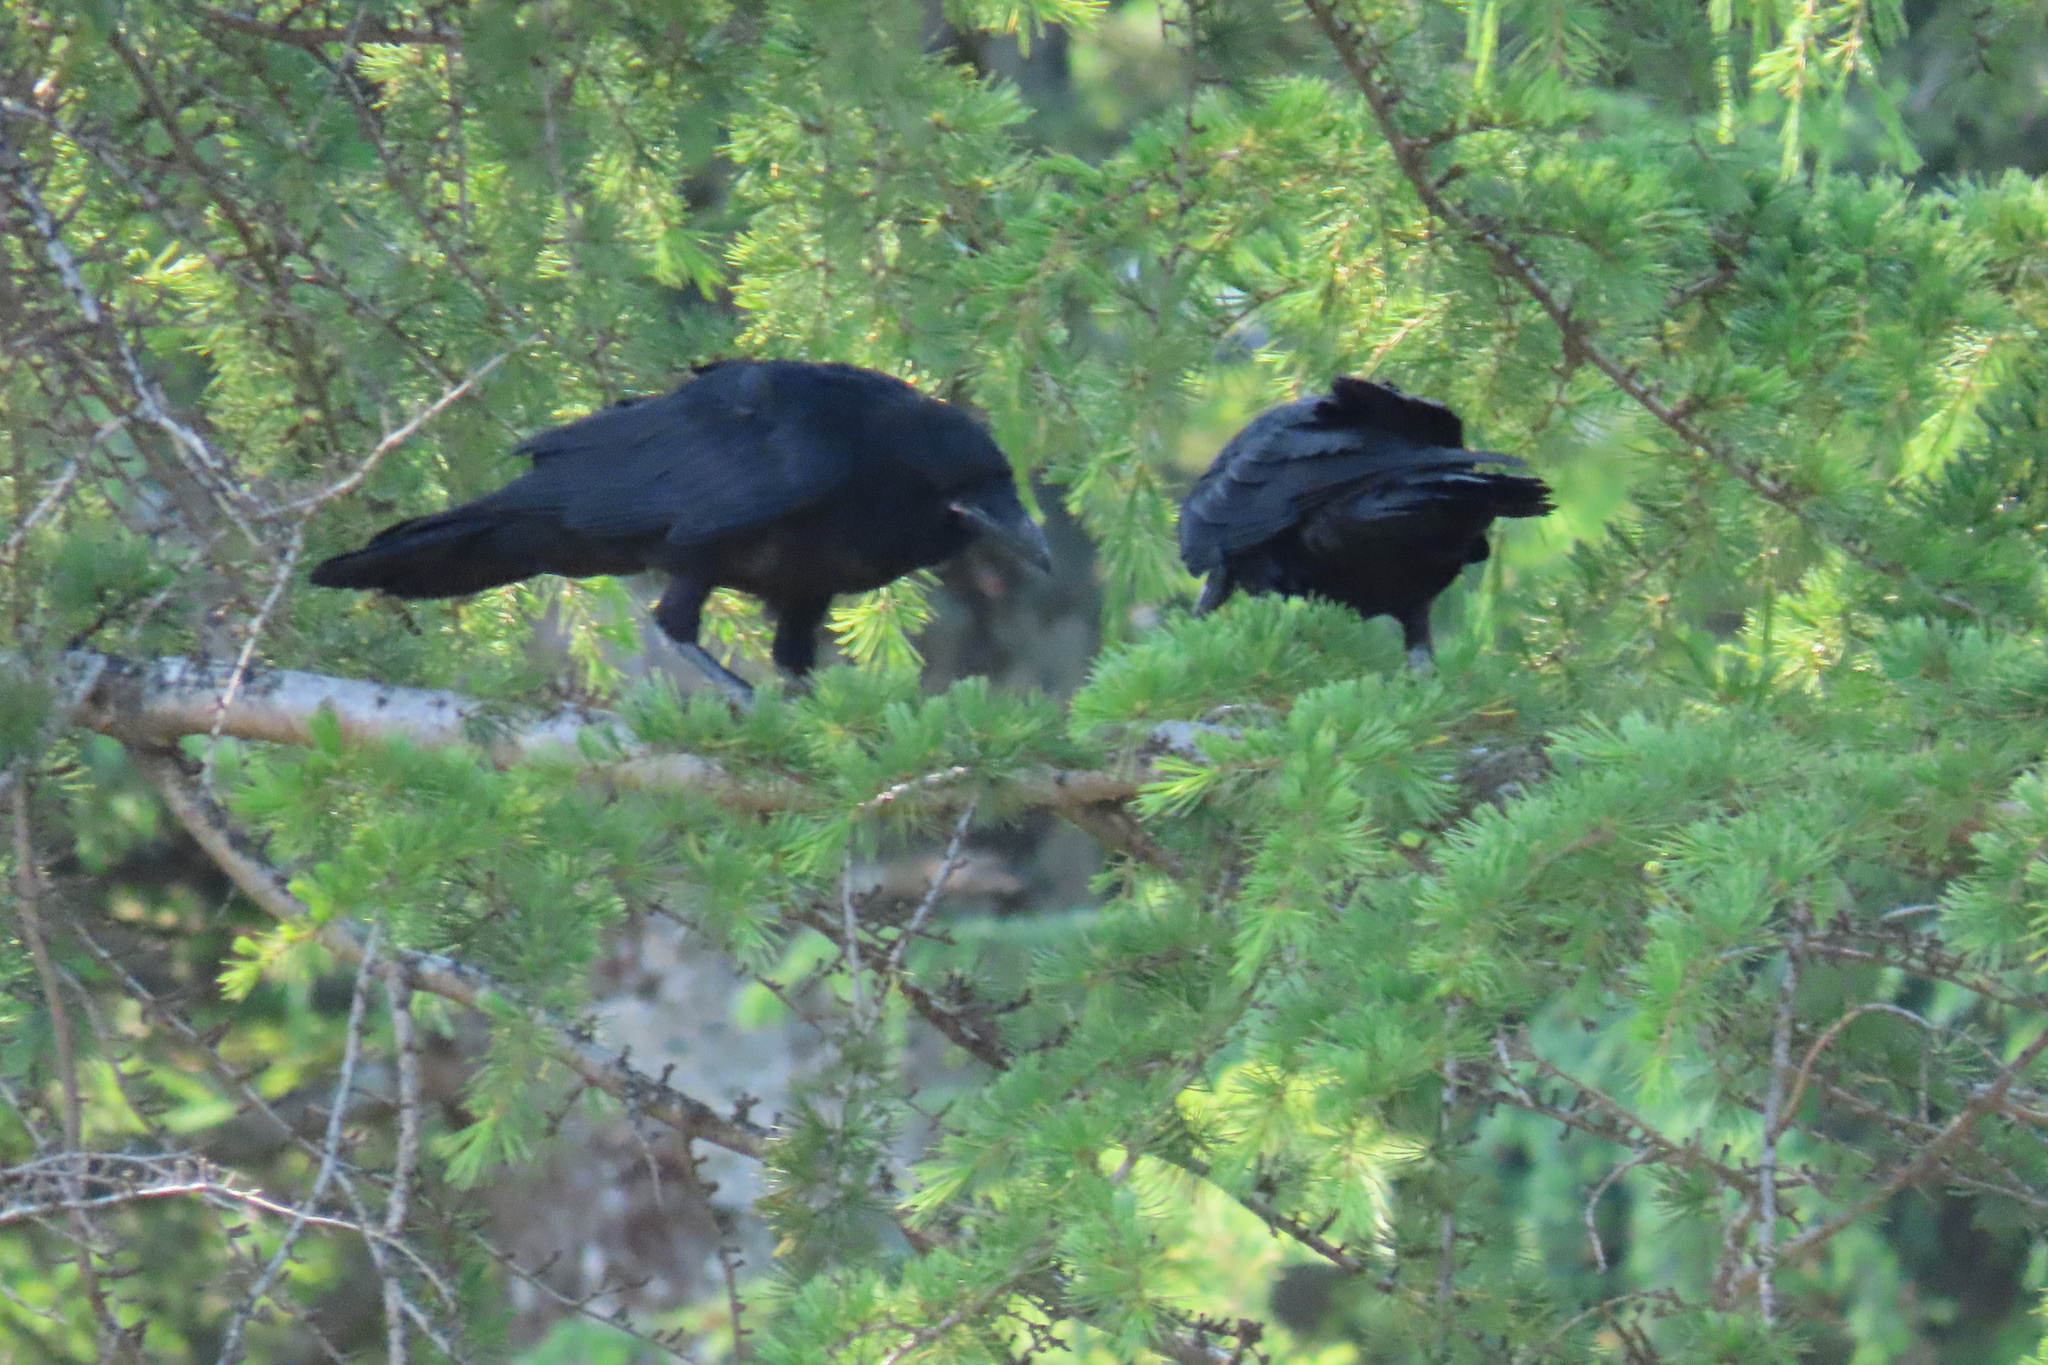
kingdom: Animalia
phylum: Chordata
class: Aves
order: Passeriformes
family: Corvidae
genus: Corvus
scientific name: Corvus corax
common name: Common raven
